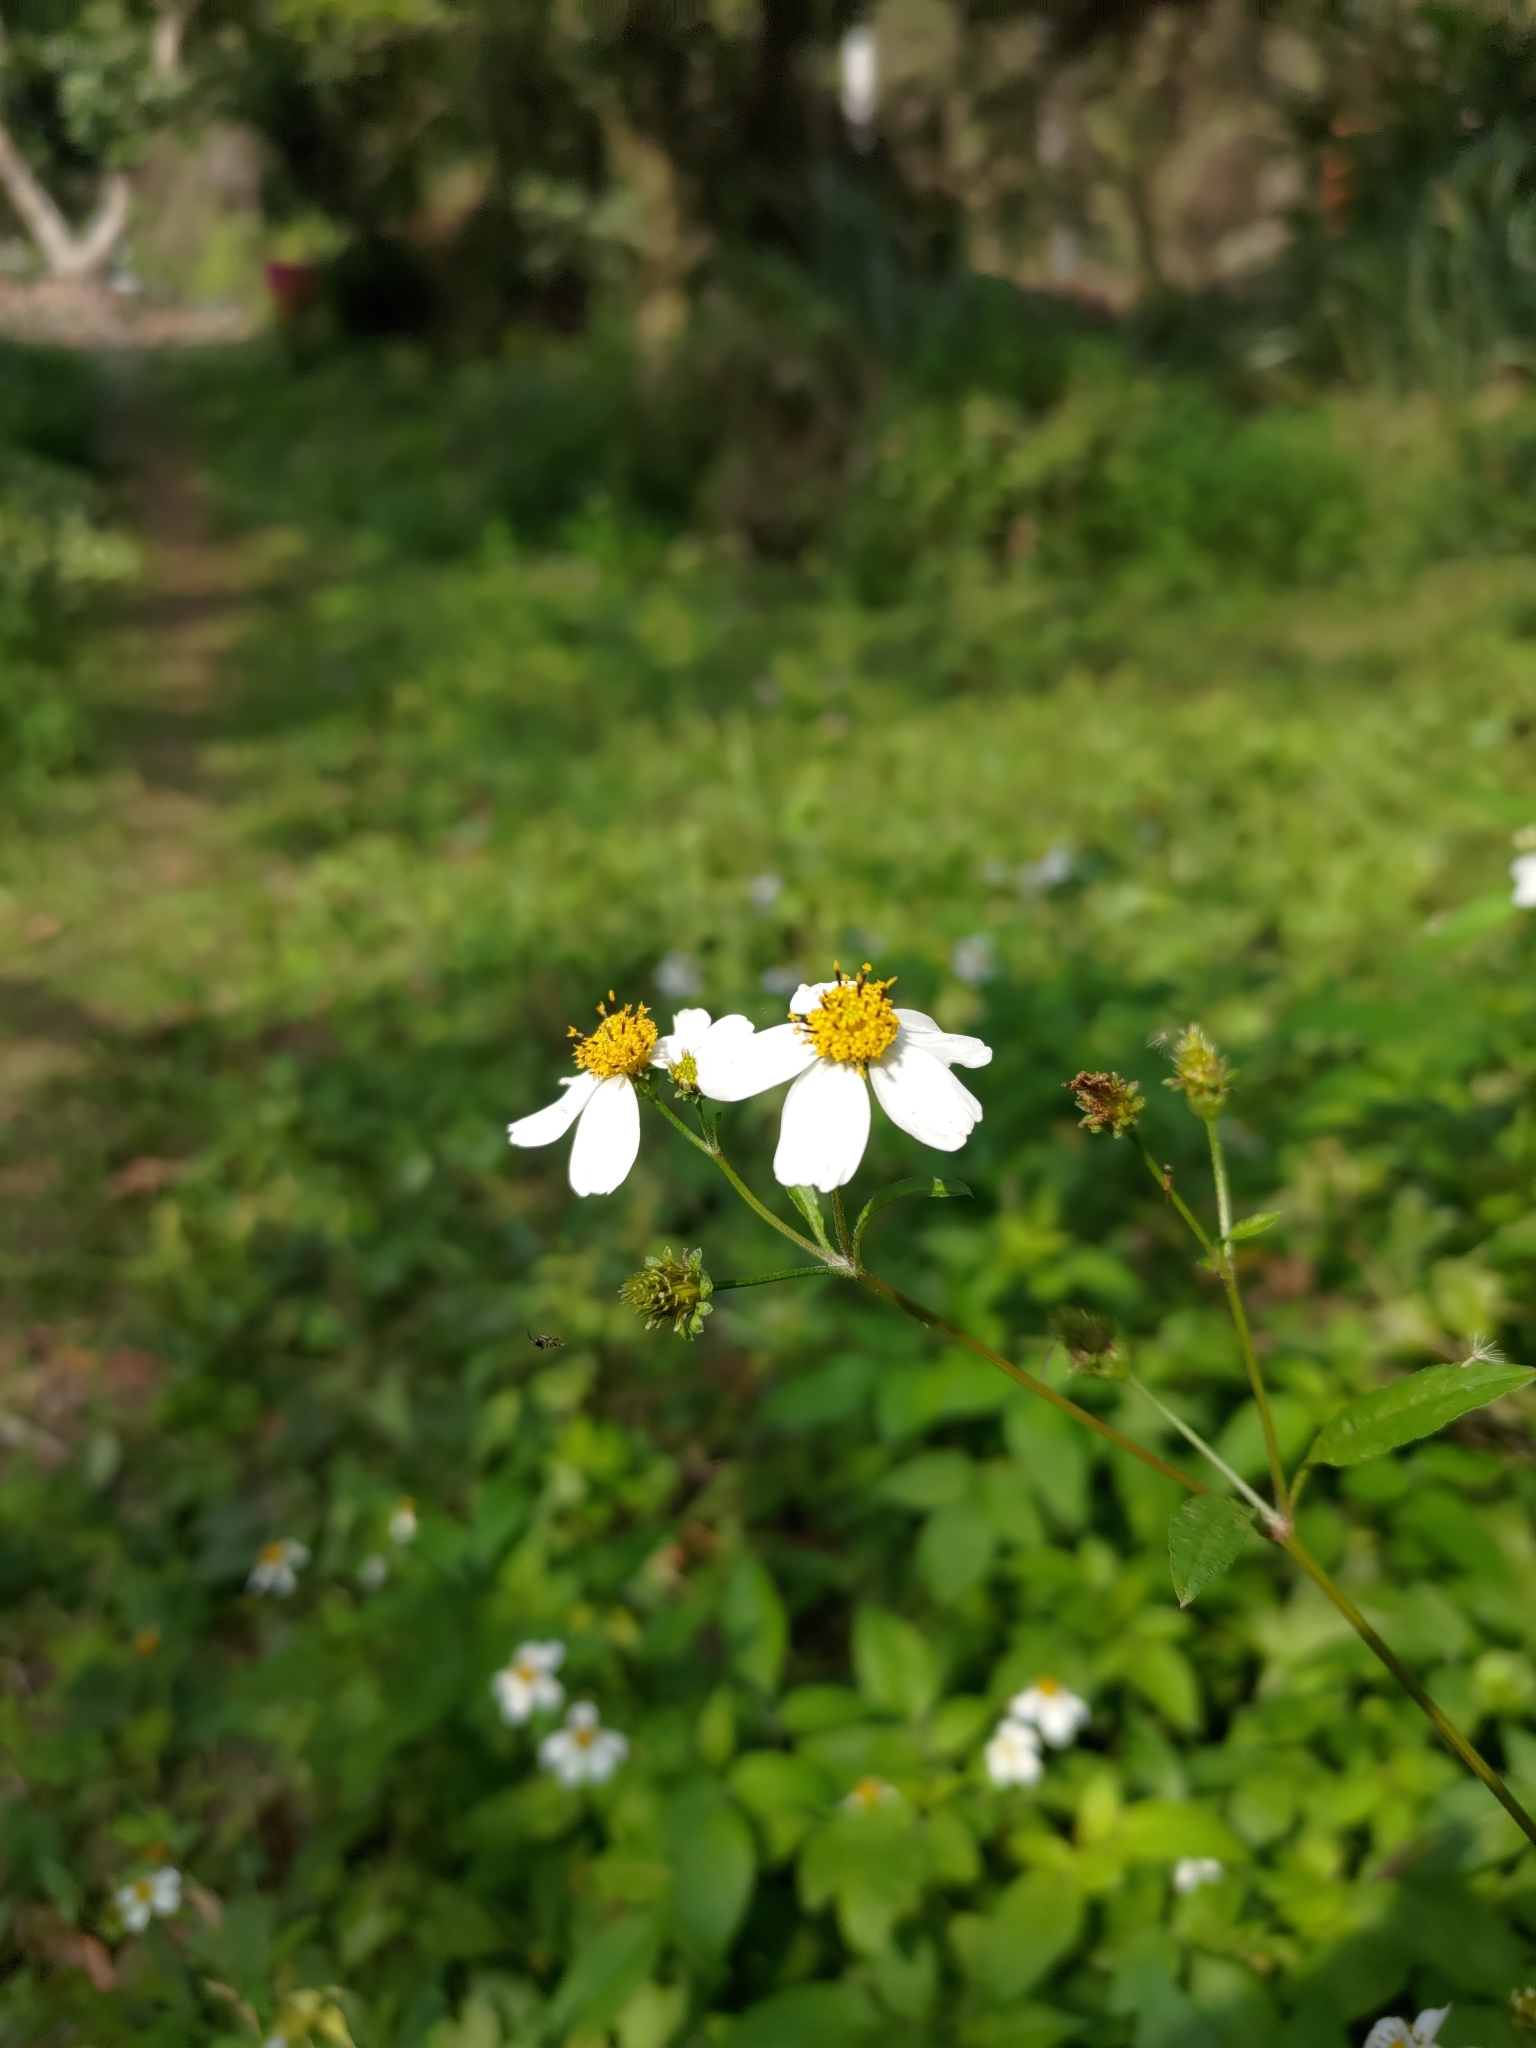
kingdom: Plantae
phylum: Tracheophyta
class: Magnoliopsida
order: Asterales
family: Asteraceae
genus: Bidens
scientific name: Bidens alba
